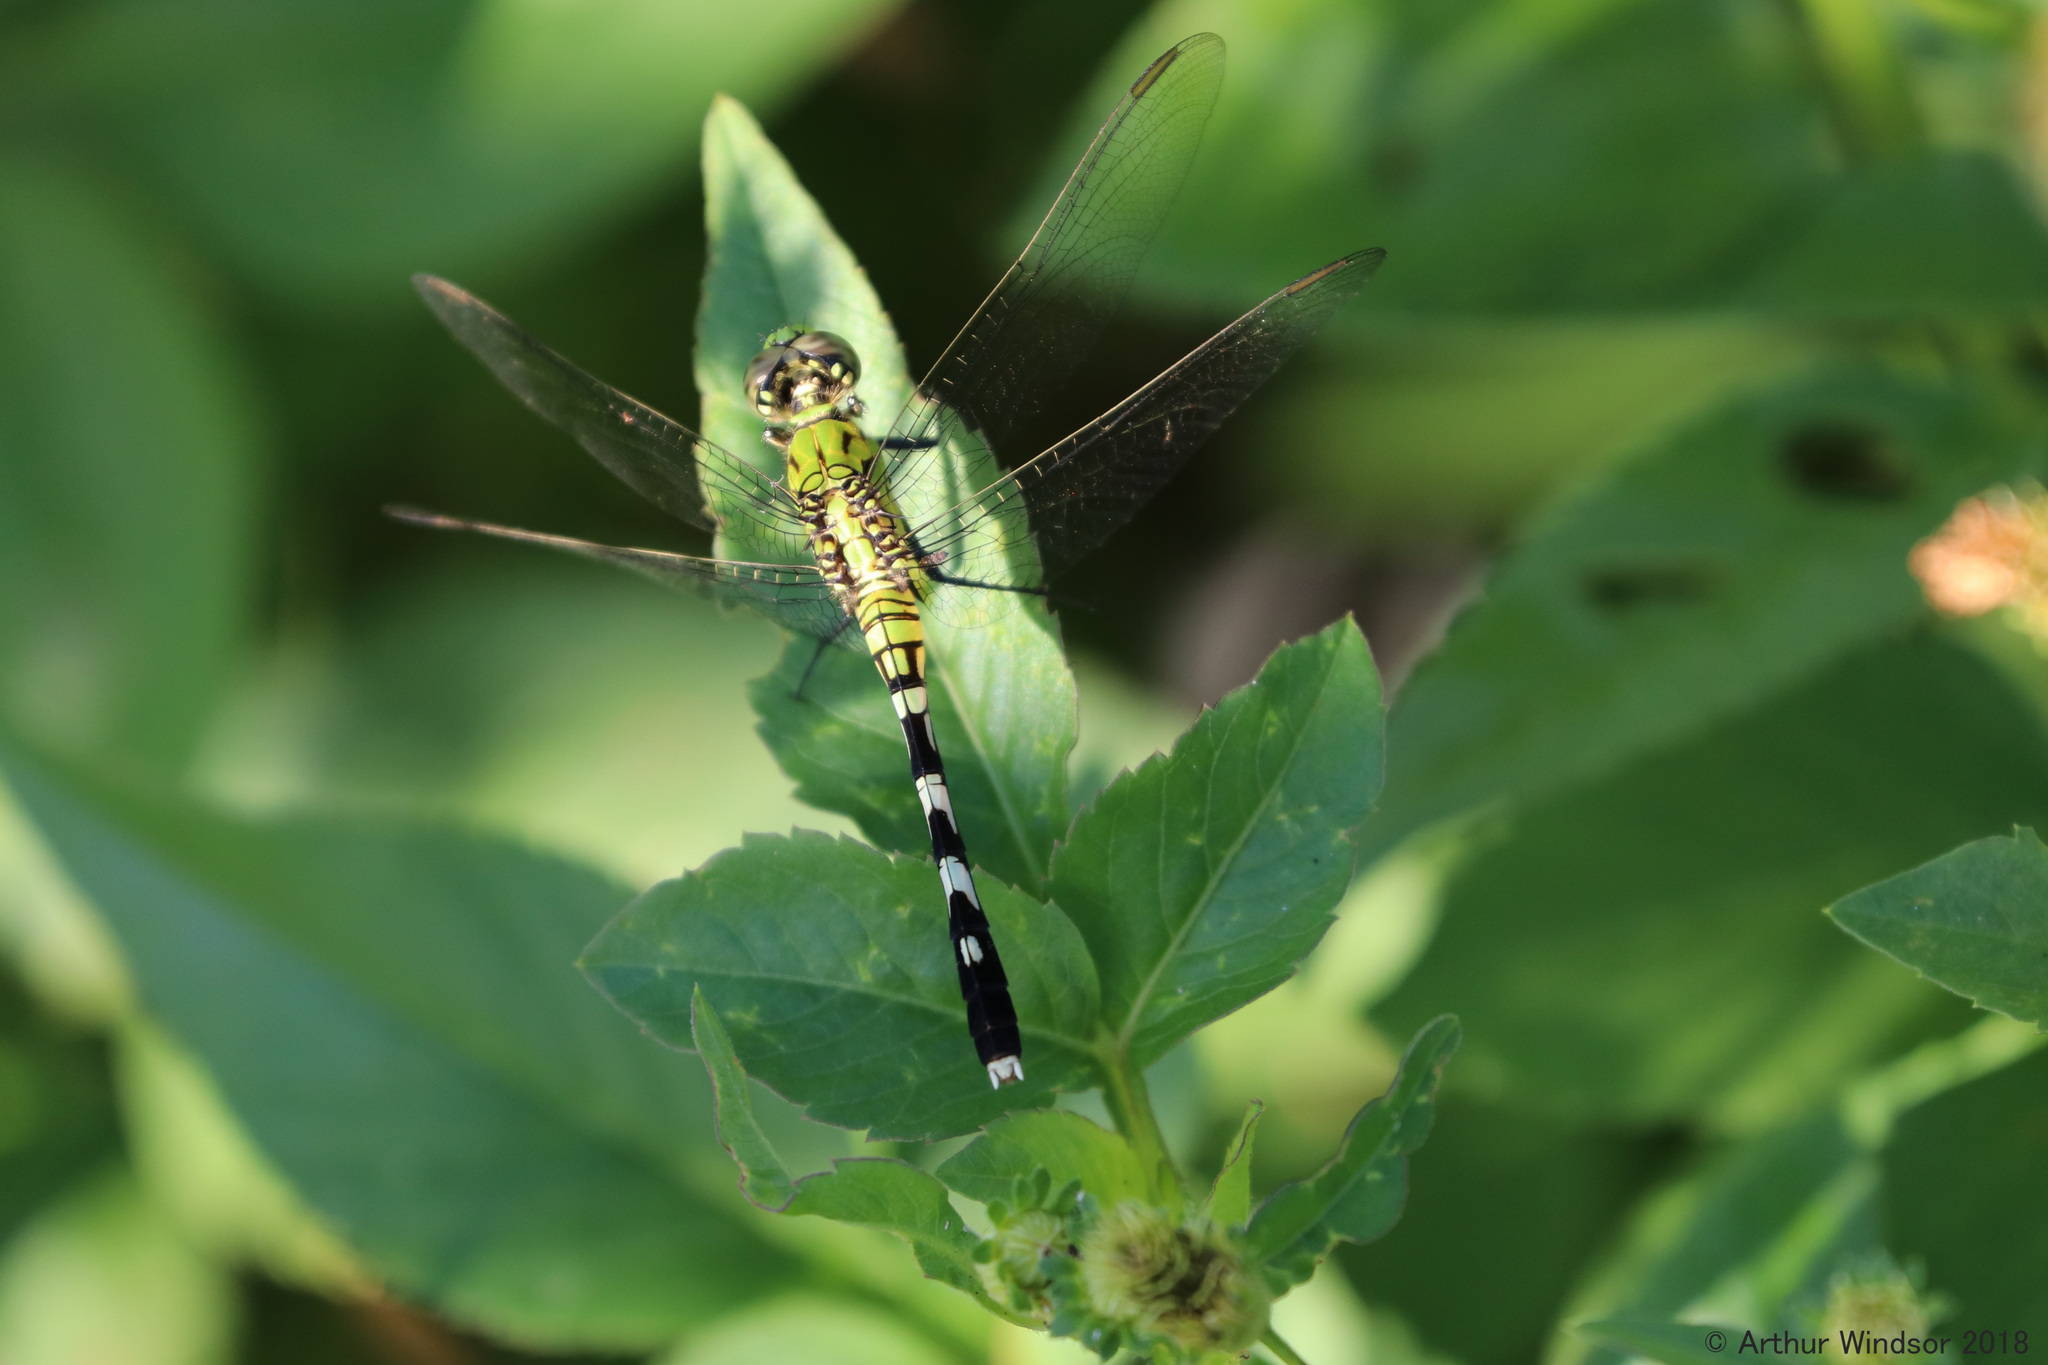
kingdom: Animalia
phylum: Arthropoda
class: Insecta
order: Odonata
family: Libellulidae
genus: Erythemis
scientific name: Erythemis simplicicollis
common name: Eastern pondhawk
